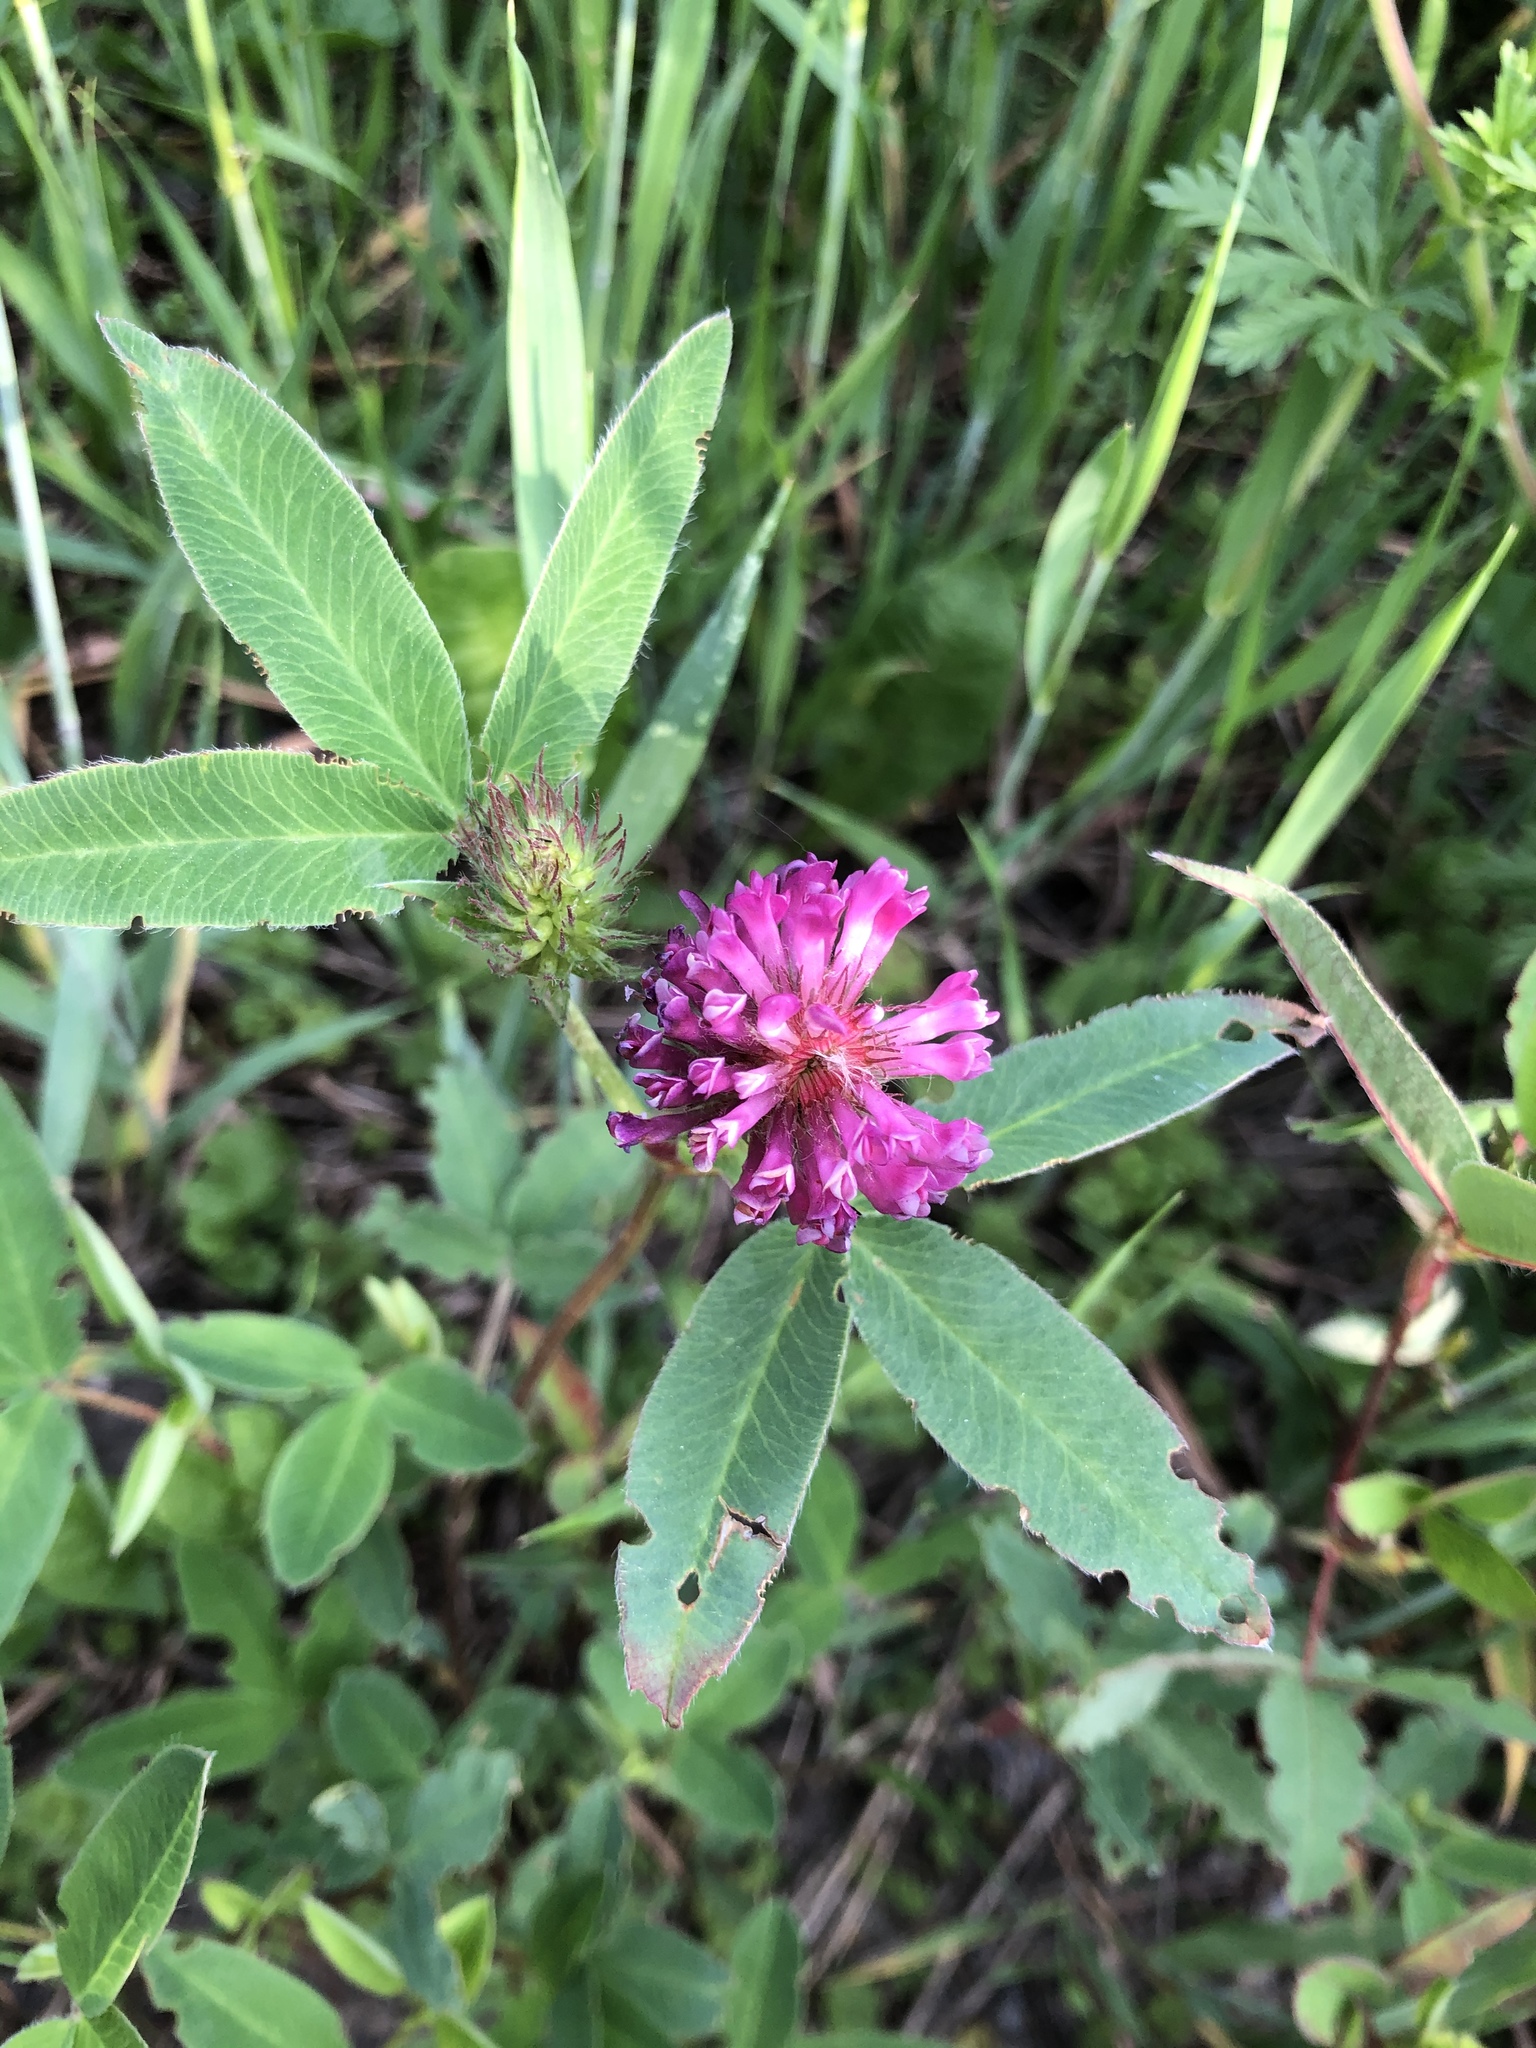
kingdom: Plantae
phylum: Tracheophyta
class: Magnoliopsida
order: Fabales
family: Fabaceae
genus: Trifolium
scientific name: Trifolium medium
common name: Zigzag clover
